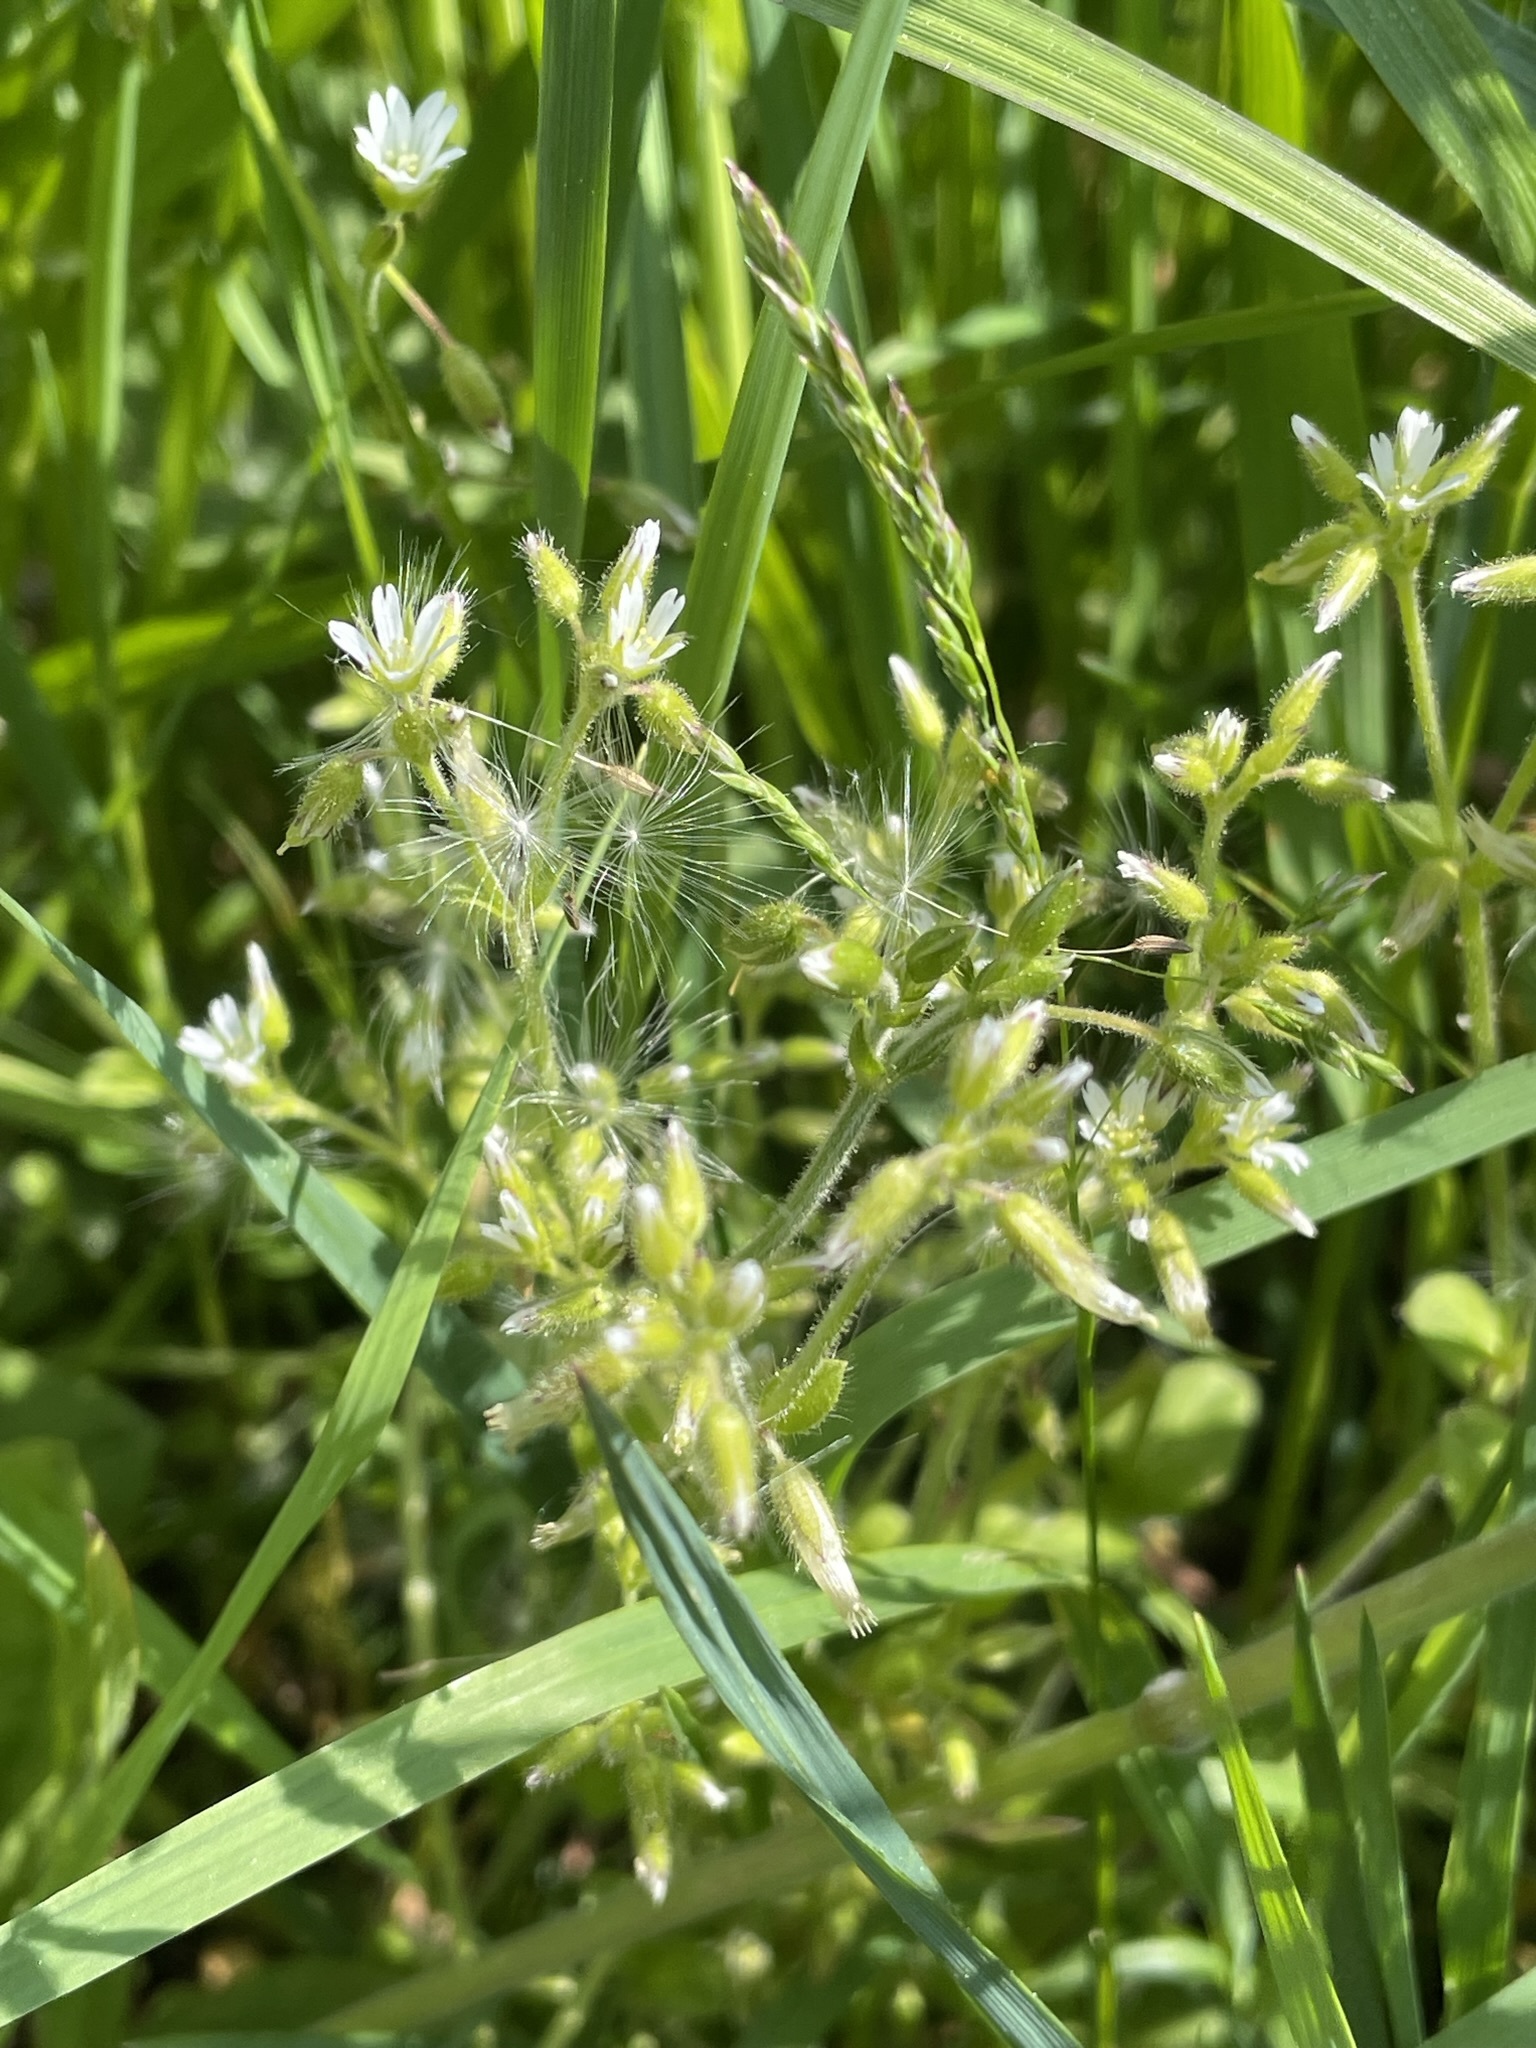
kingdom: Plantae
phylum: Tracheophyta
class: Magnoliopsida
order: Caryophyllales
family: Caryophyllaceae
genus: Cerastium
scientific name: Cerastium glomeratum
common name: Sticky chickweed
